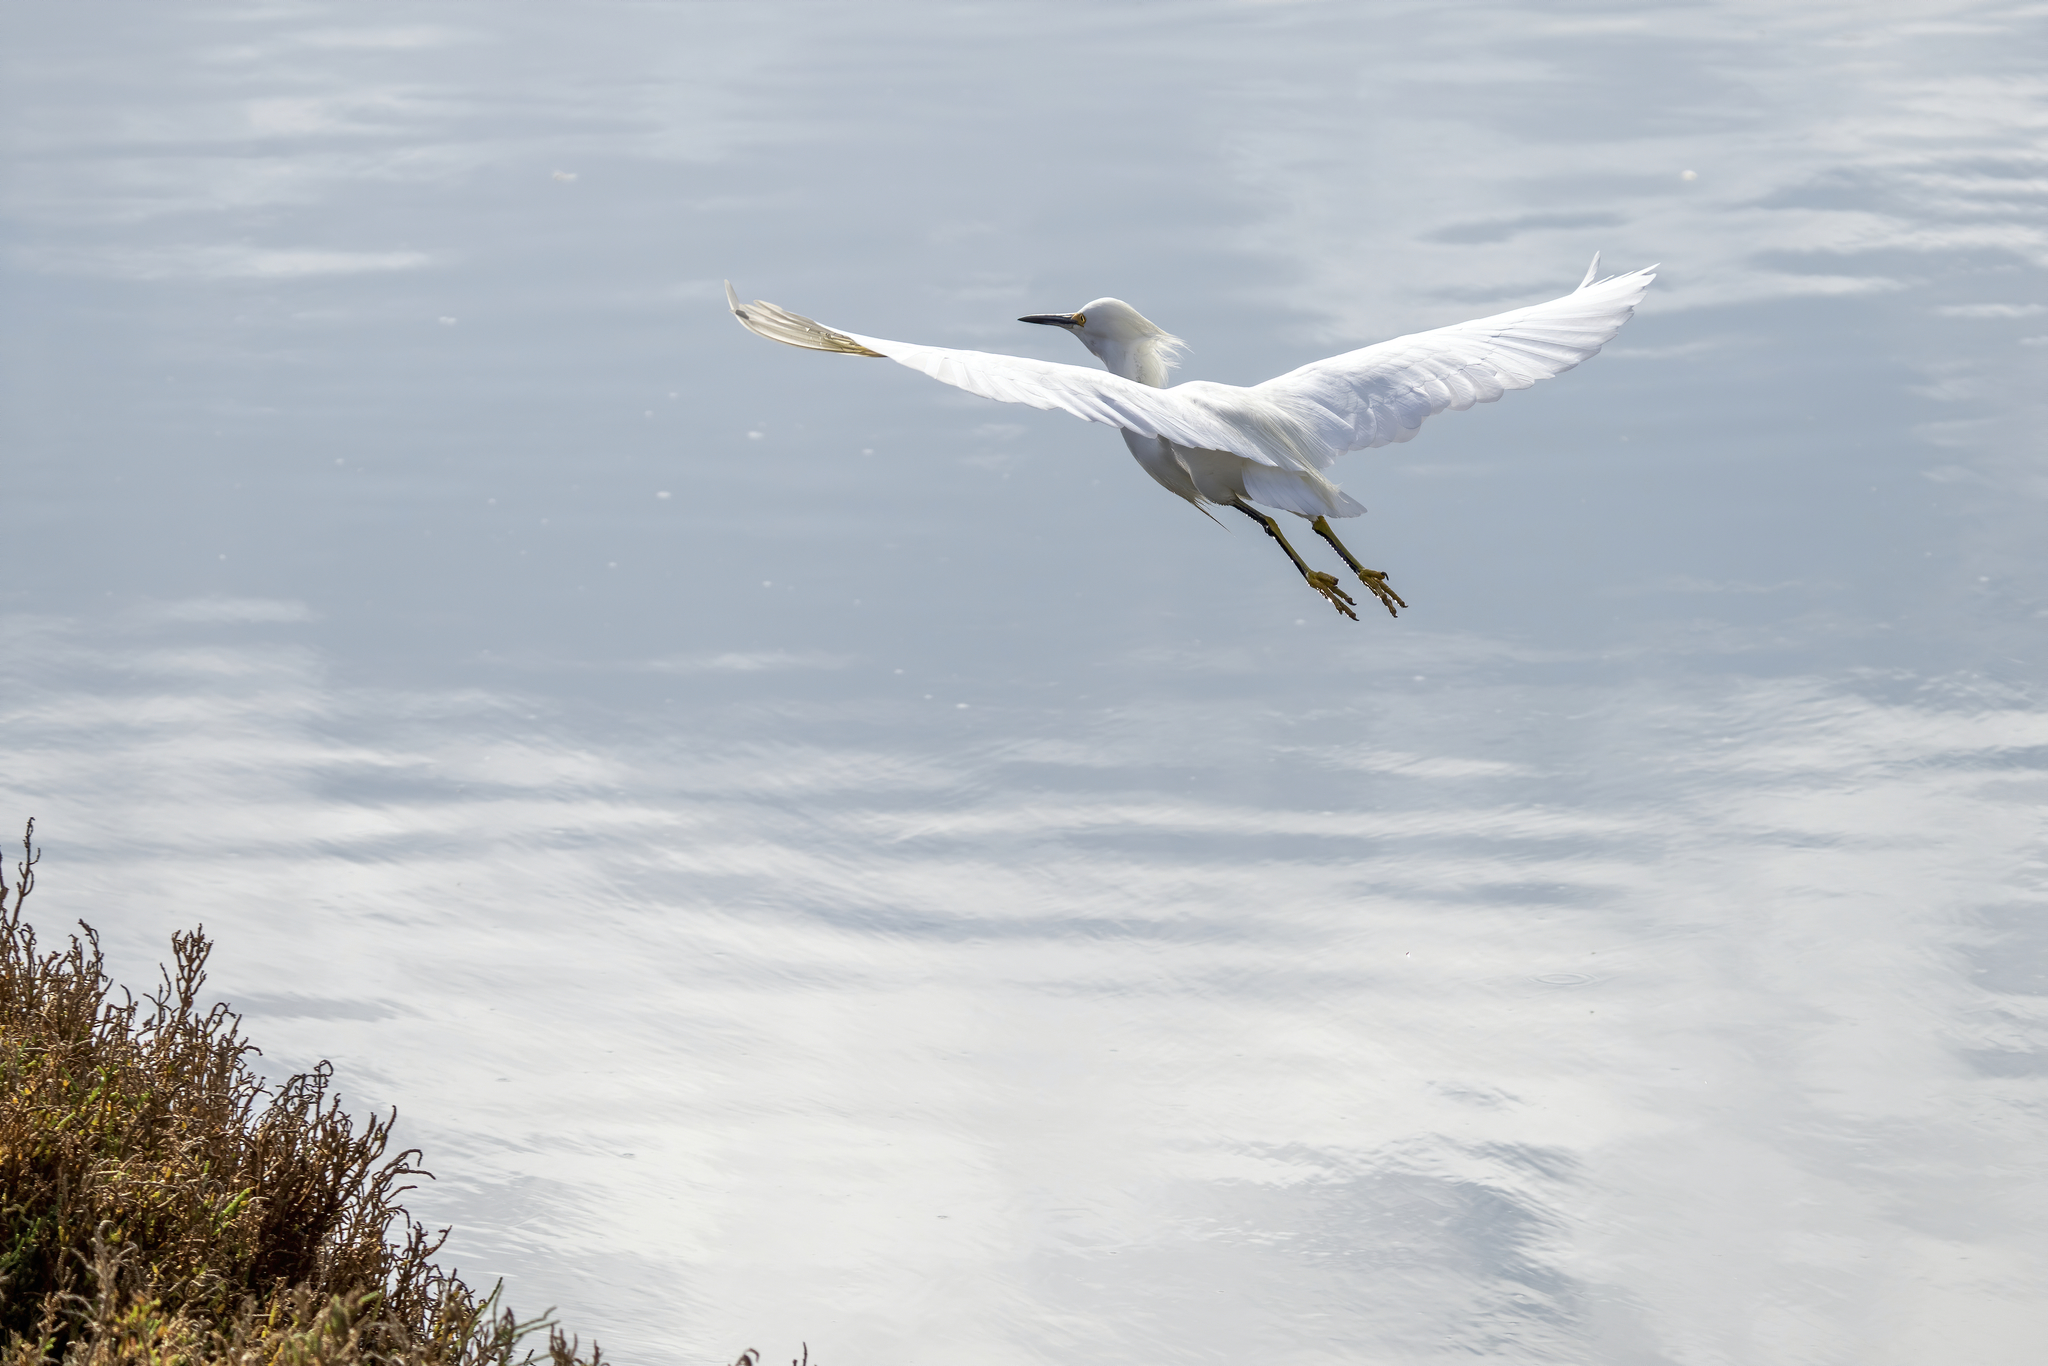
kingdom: Animalia
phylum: Chordata
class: Aves
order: Pelecaniformes
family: Ardeidae
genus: Egretta
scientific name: Egretta thula
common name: Snowy egret
